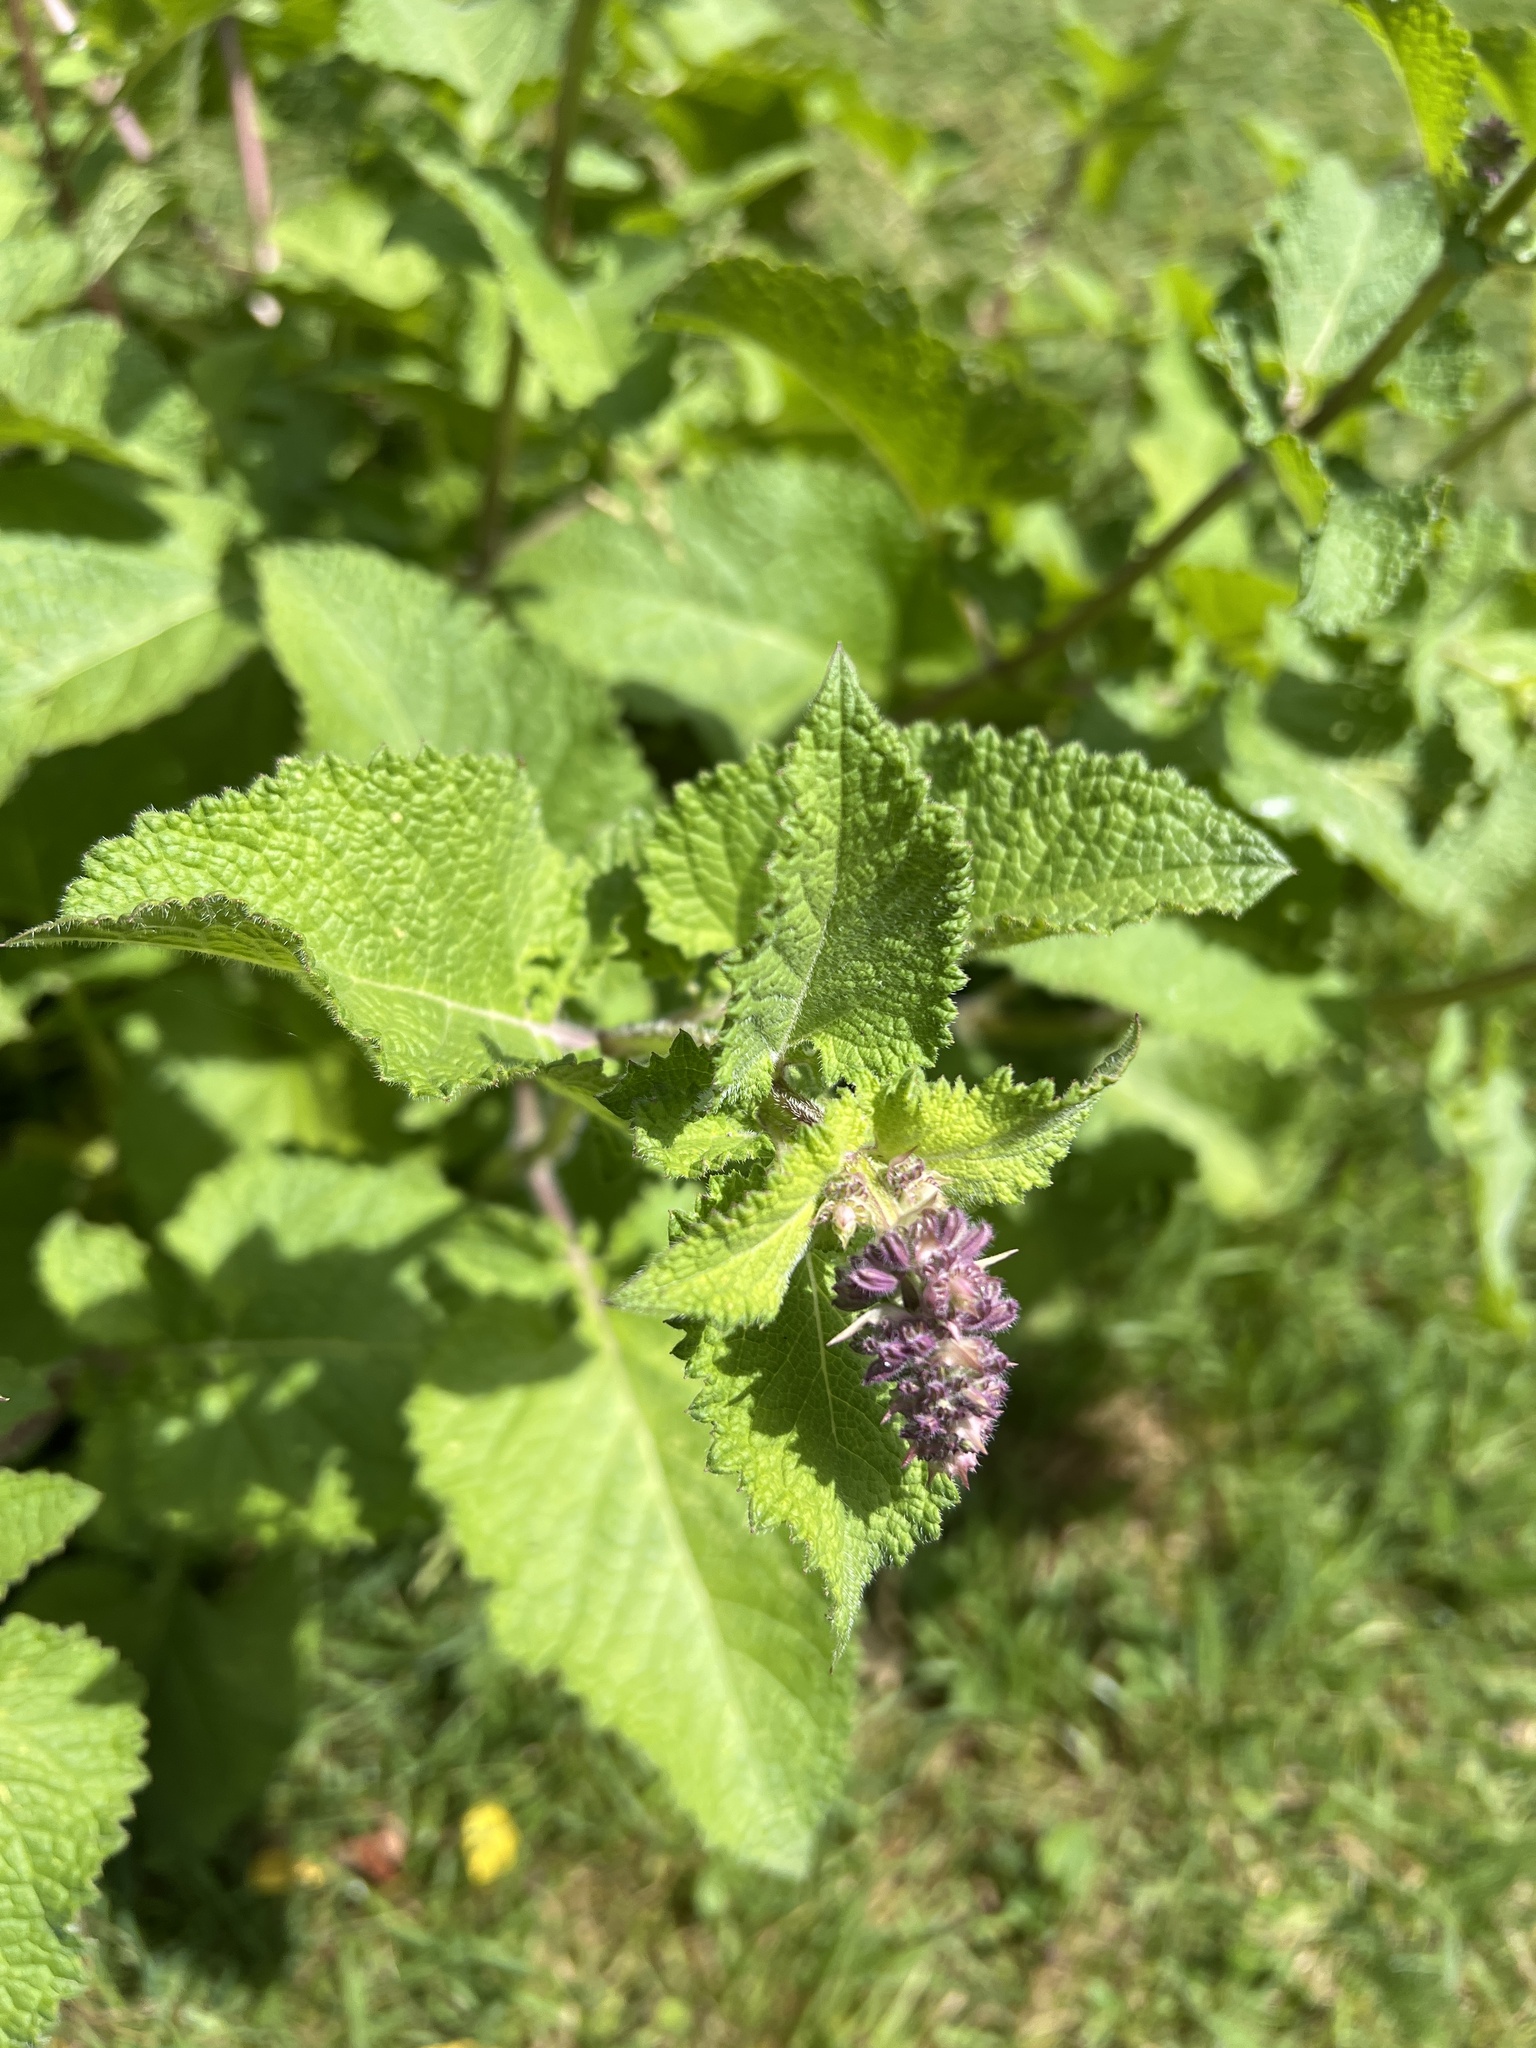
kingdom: Plantae
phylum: Tracheophyta
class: Magnoliopsida
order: Lamiales
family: Lamiaceae
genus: Salvia
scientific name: Salvia verticillata
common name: Whorled clary
